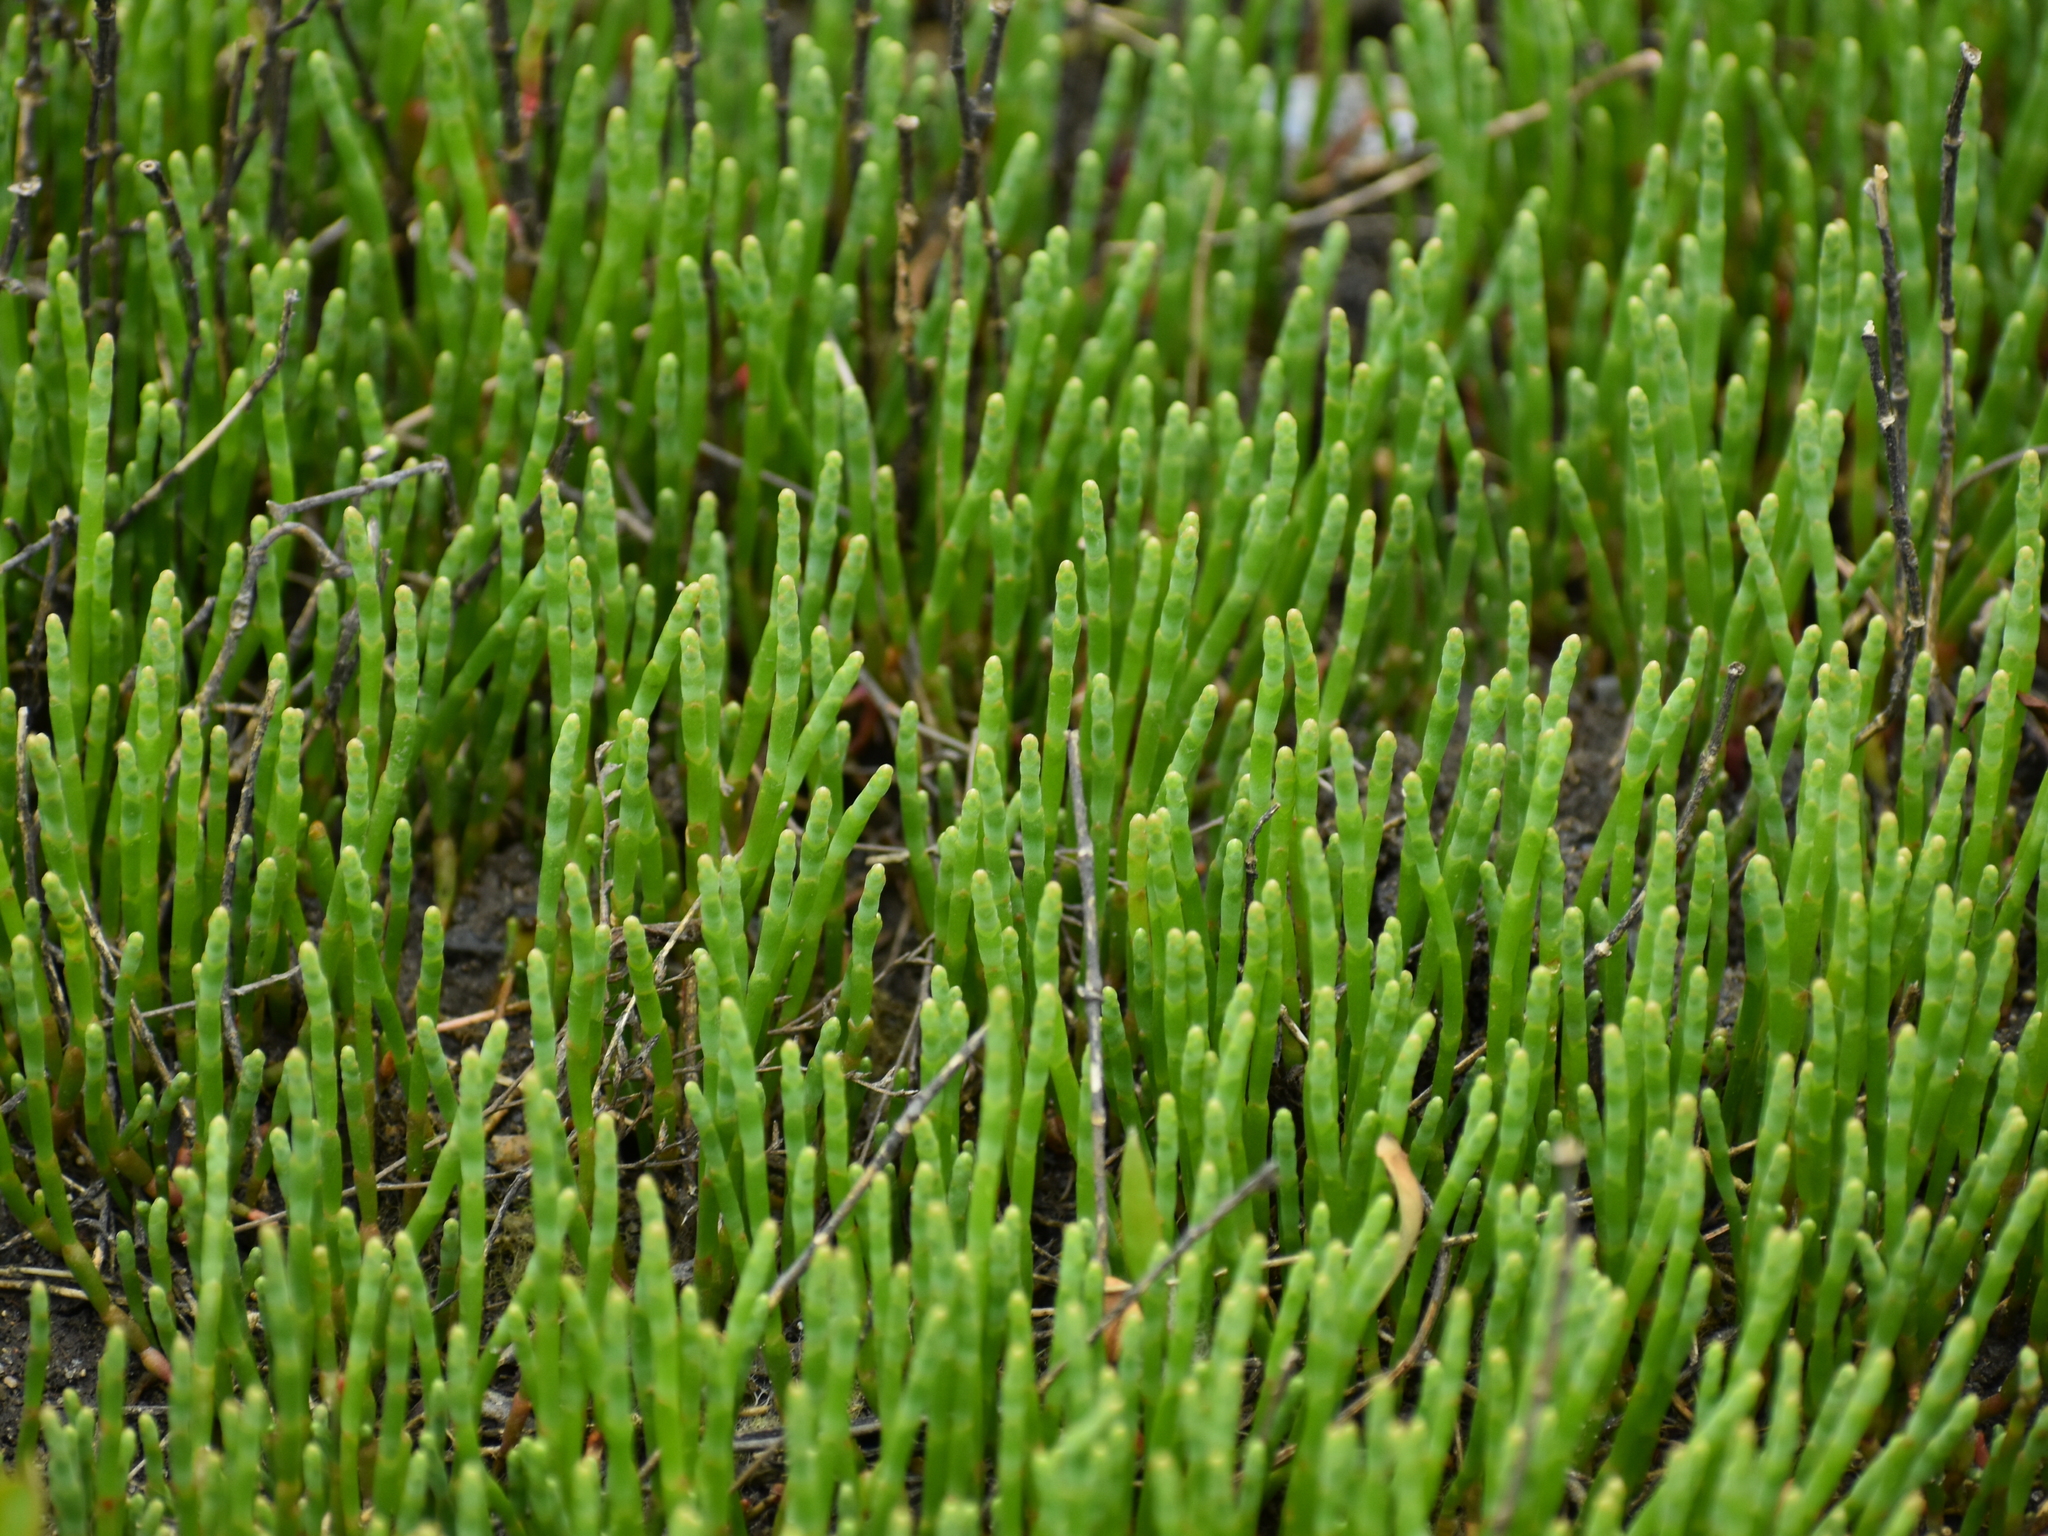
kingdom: Plantae
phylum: Tracheophyta
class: Magnoliopsida
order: Caryophyllales
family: Amaranthaceae
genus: Salicornia
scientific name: Salicornia perennis
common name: Chicken claws
